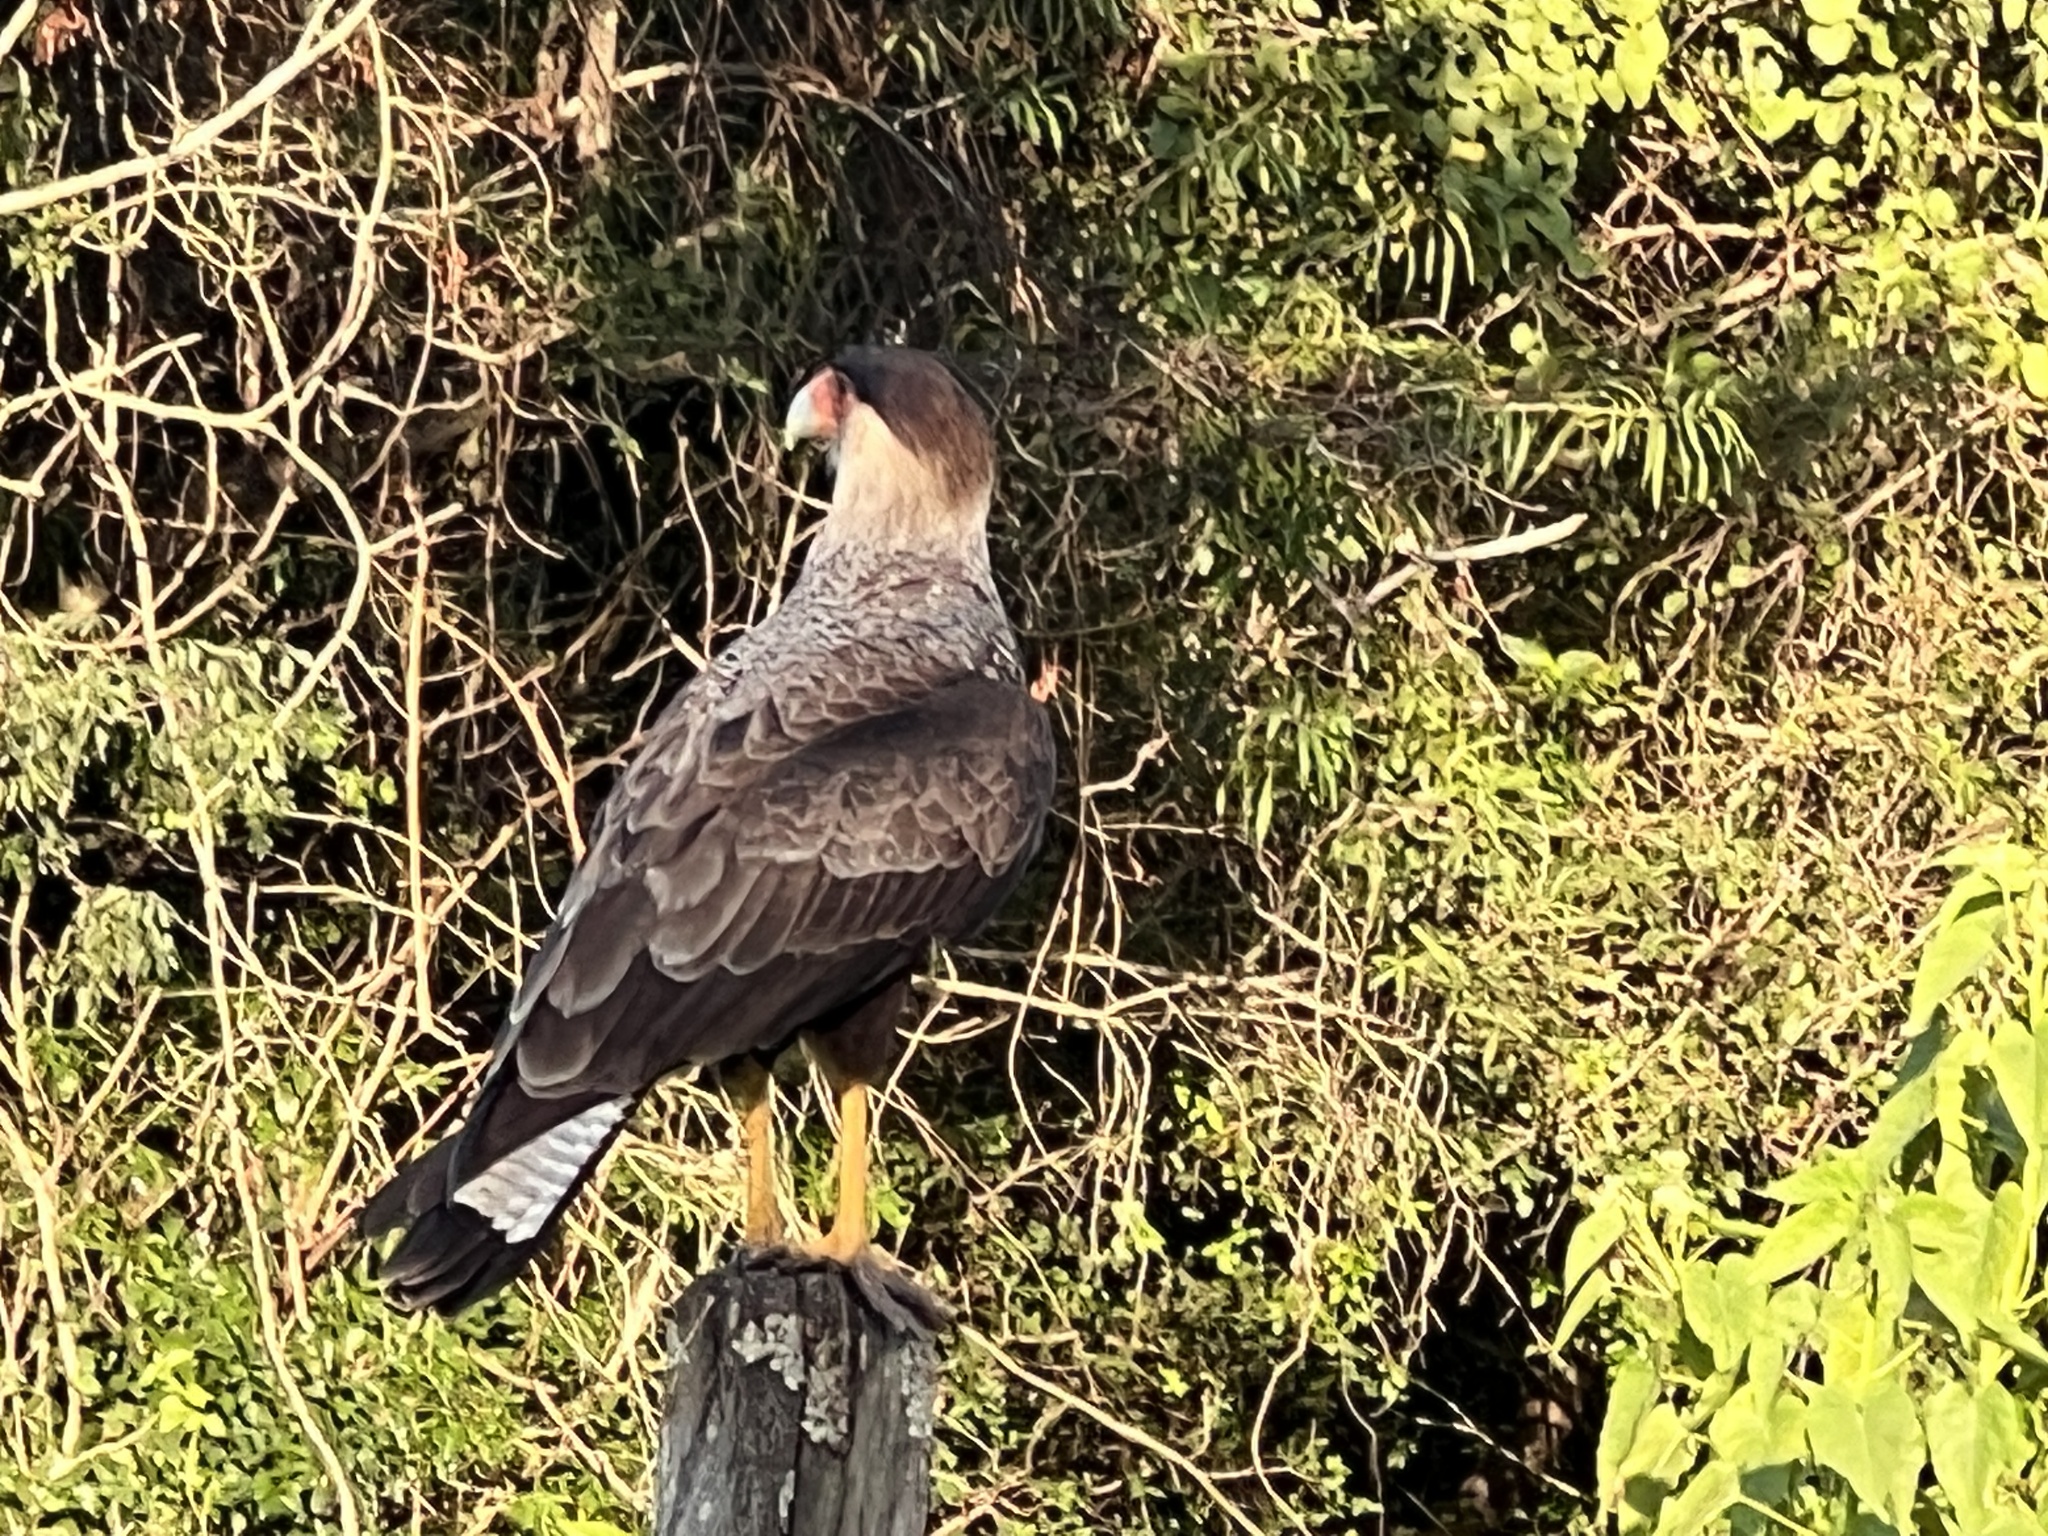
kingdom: Animalia
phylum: Chordata
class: Aves
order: Falconiformes
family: Falconidae
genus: Caracara
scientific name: Caracara plancus
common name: Southern caracara
